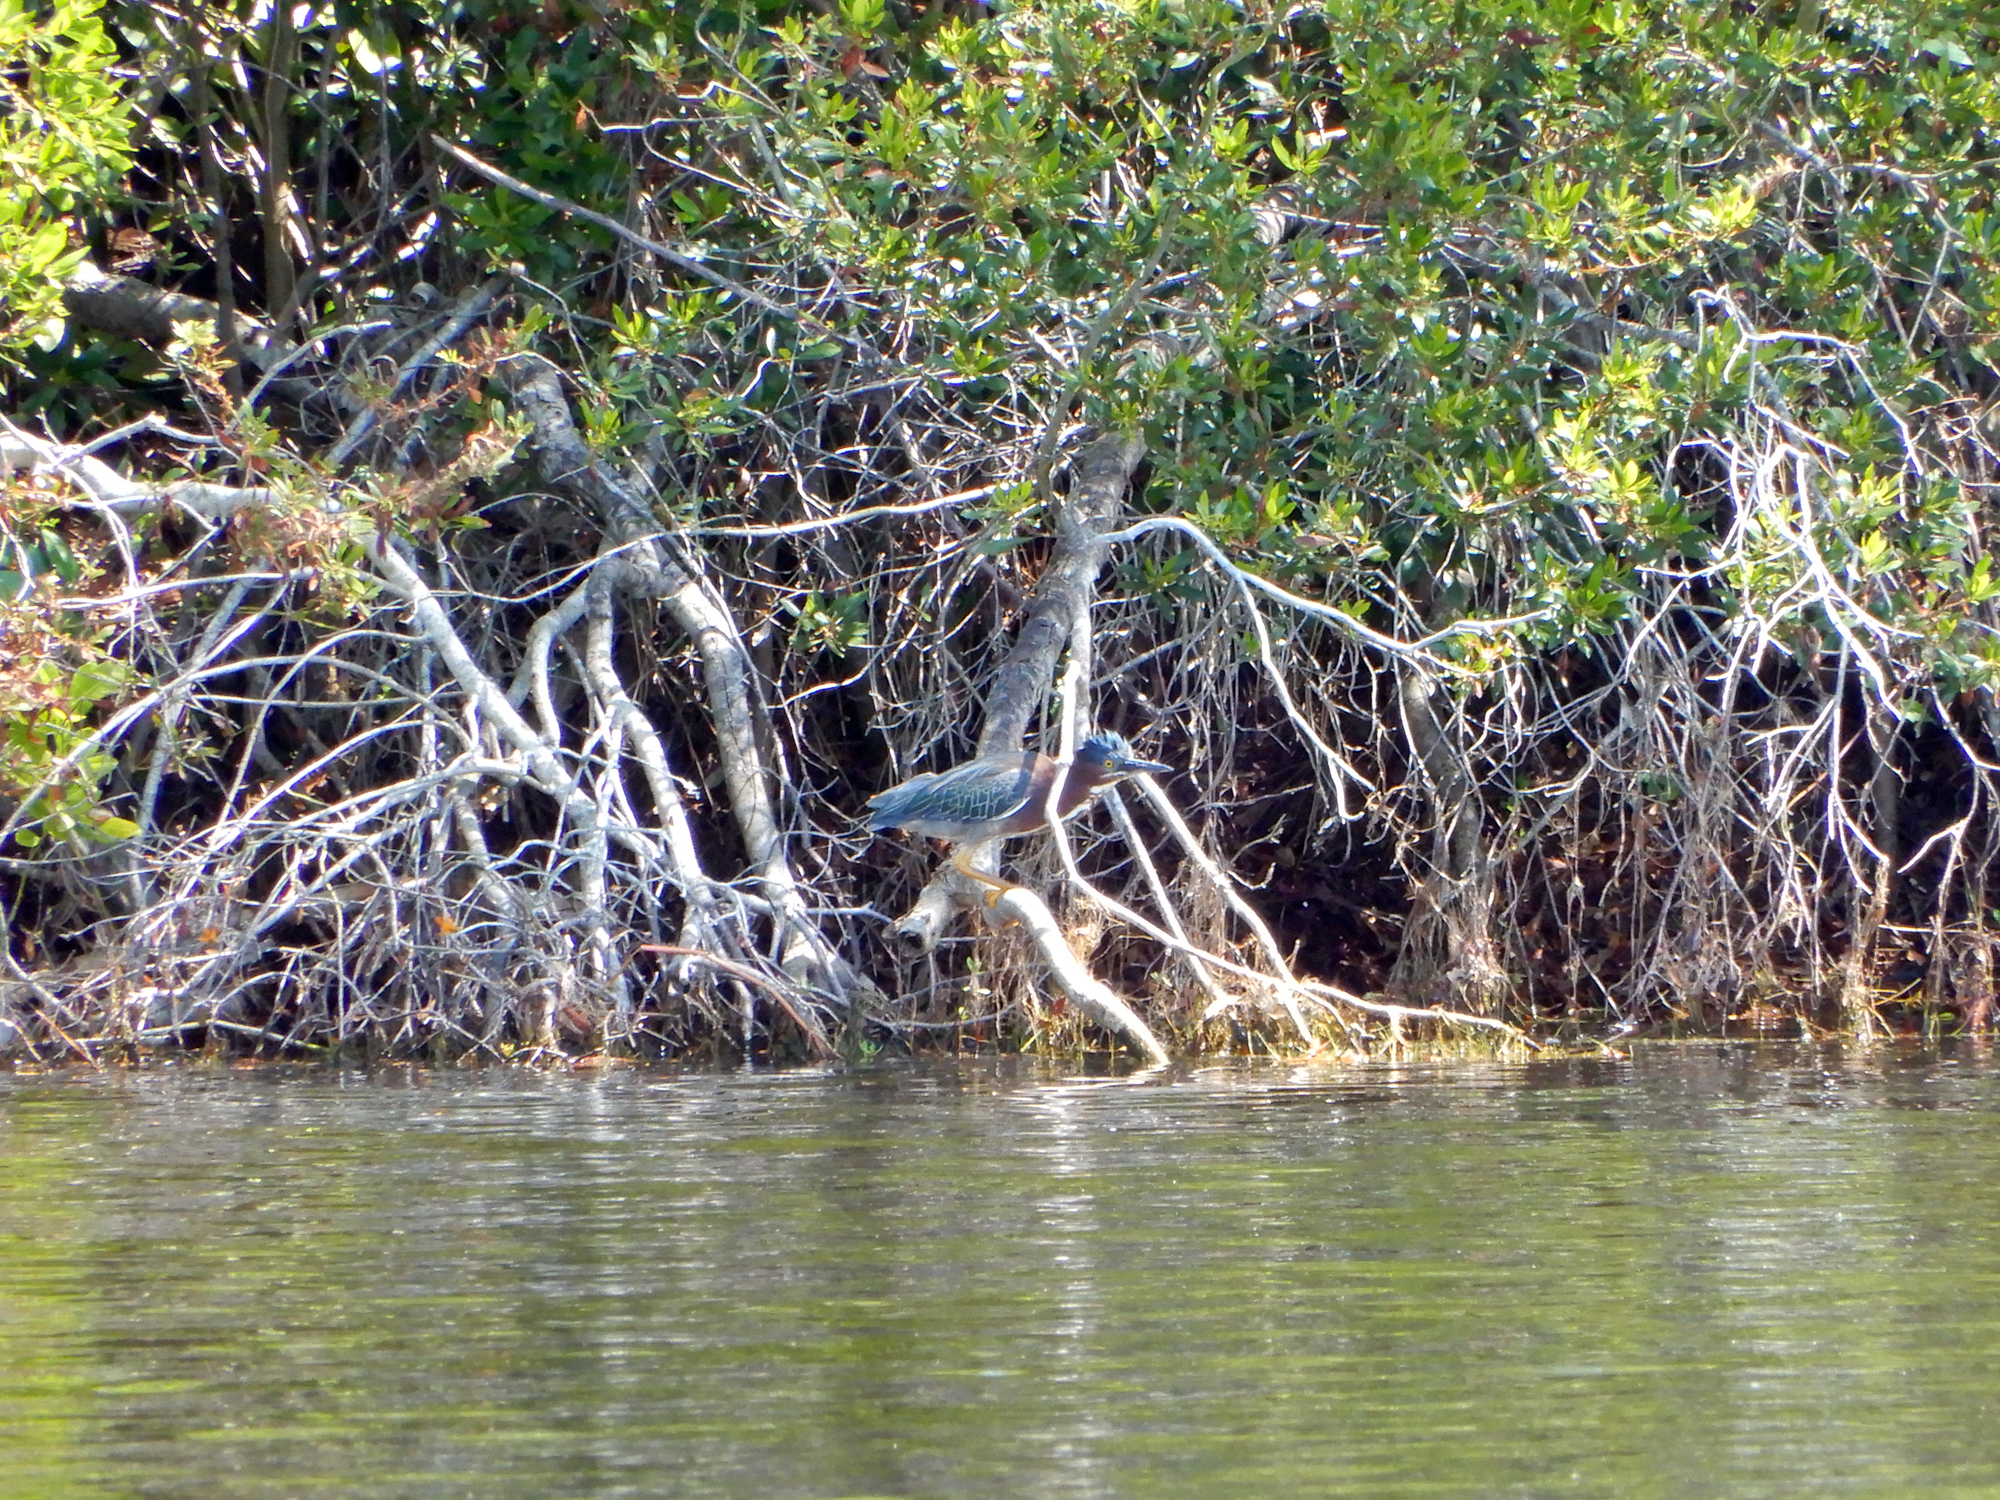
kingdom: Animalia
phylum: Chordata
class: Aves
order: Pelecaniformes
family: Ardeidae
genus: Butorides
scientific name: Butorides virescens
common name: Green heron
